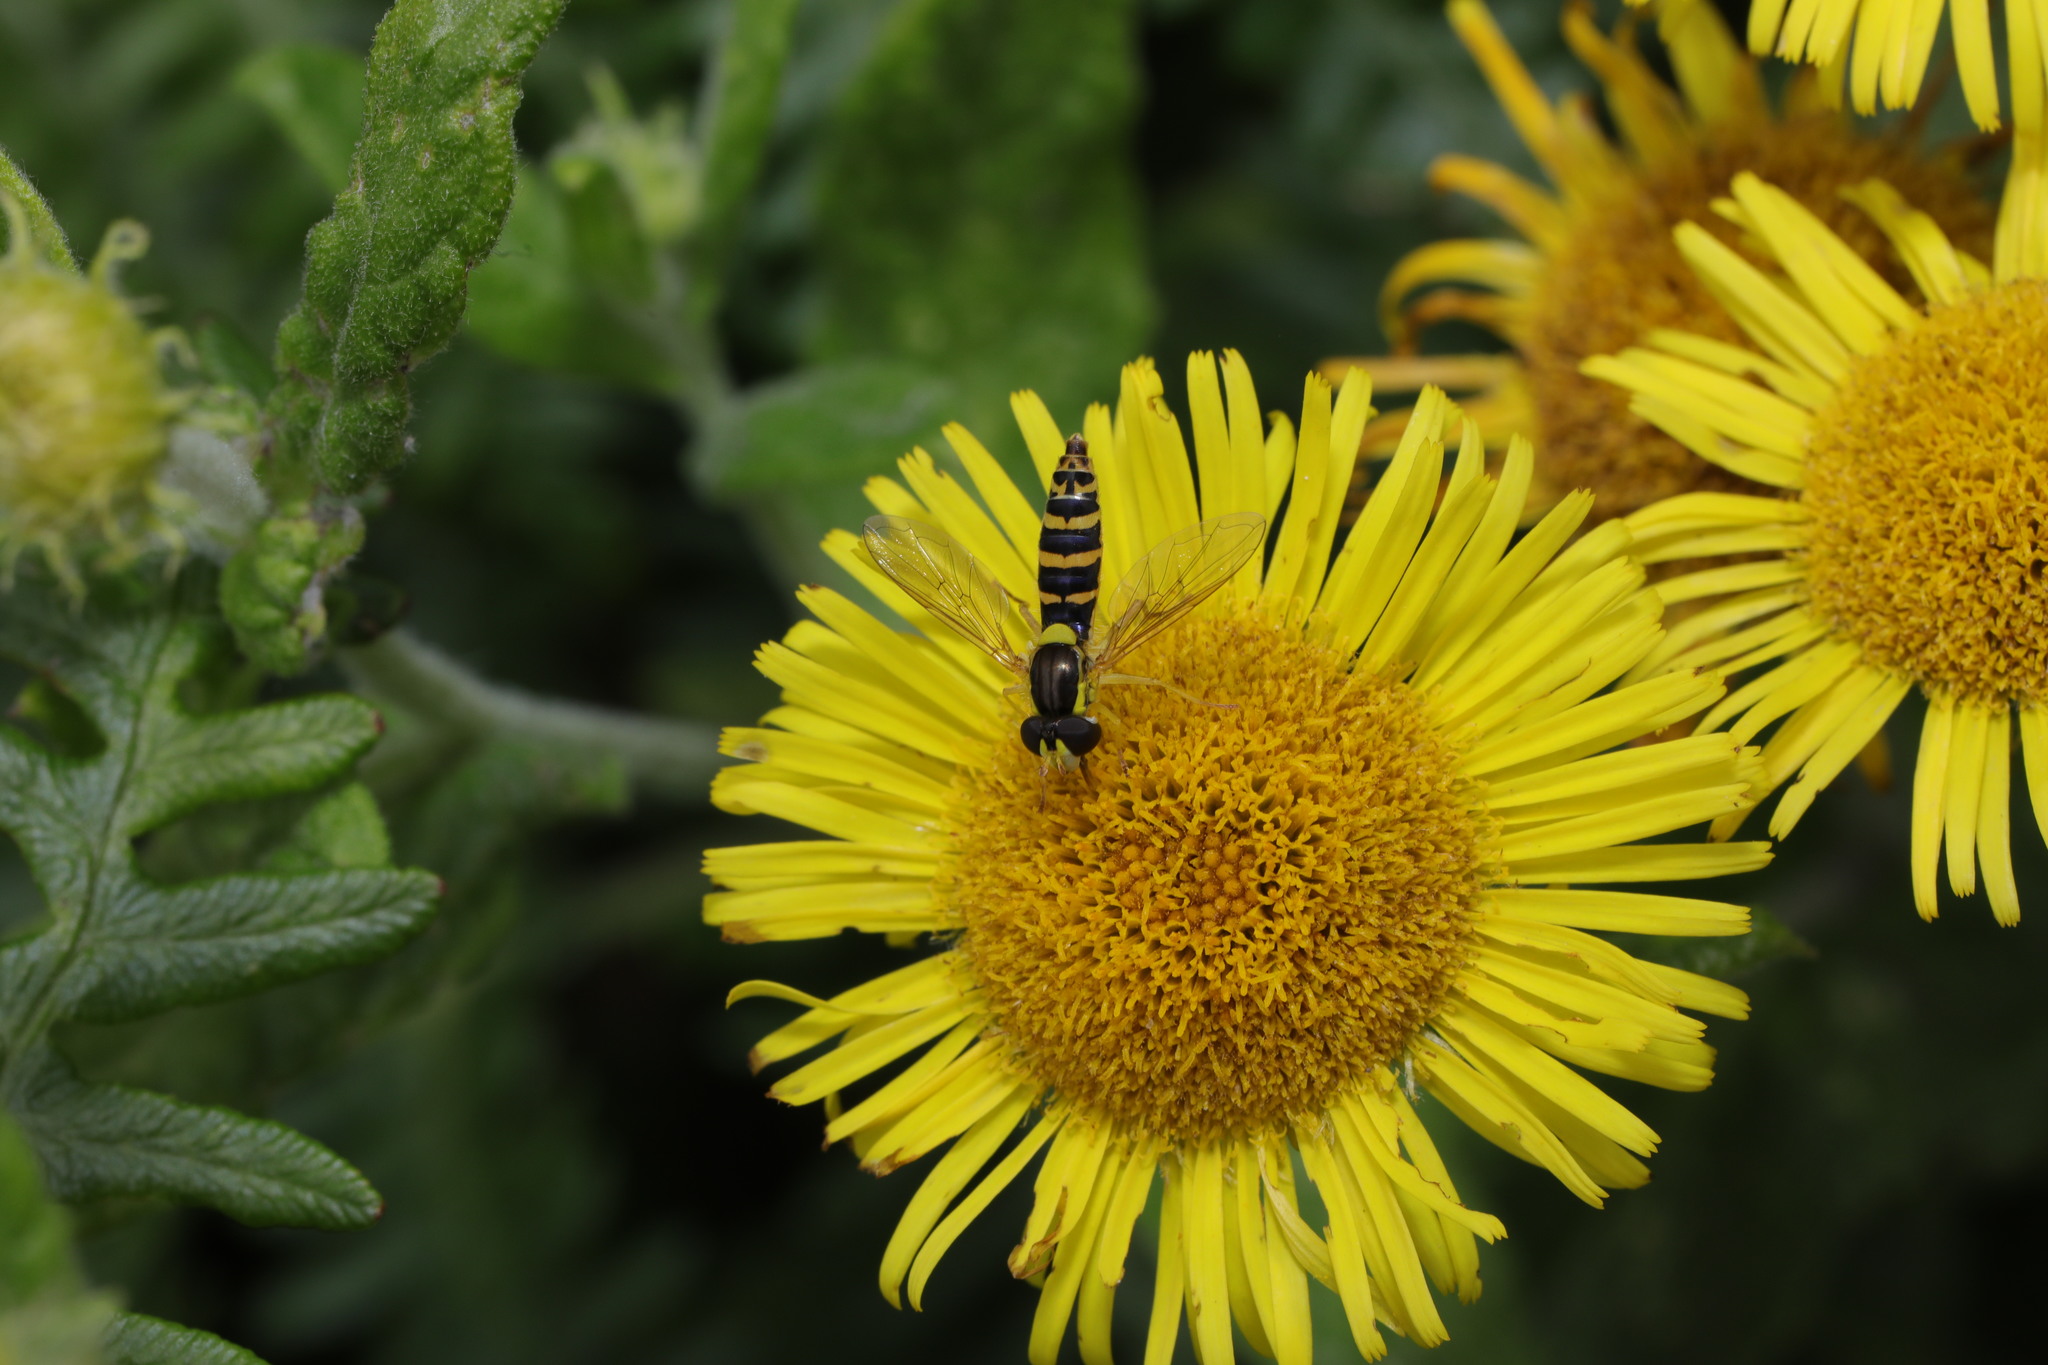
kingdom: Animalia
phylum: Arthropoda
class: Insecta
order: Diptera
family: Syrphidae
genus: Sphaerophoria
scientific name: Sphaerophoria
